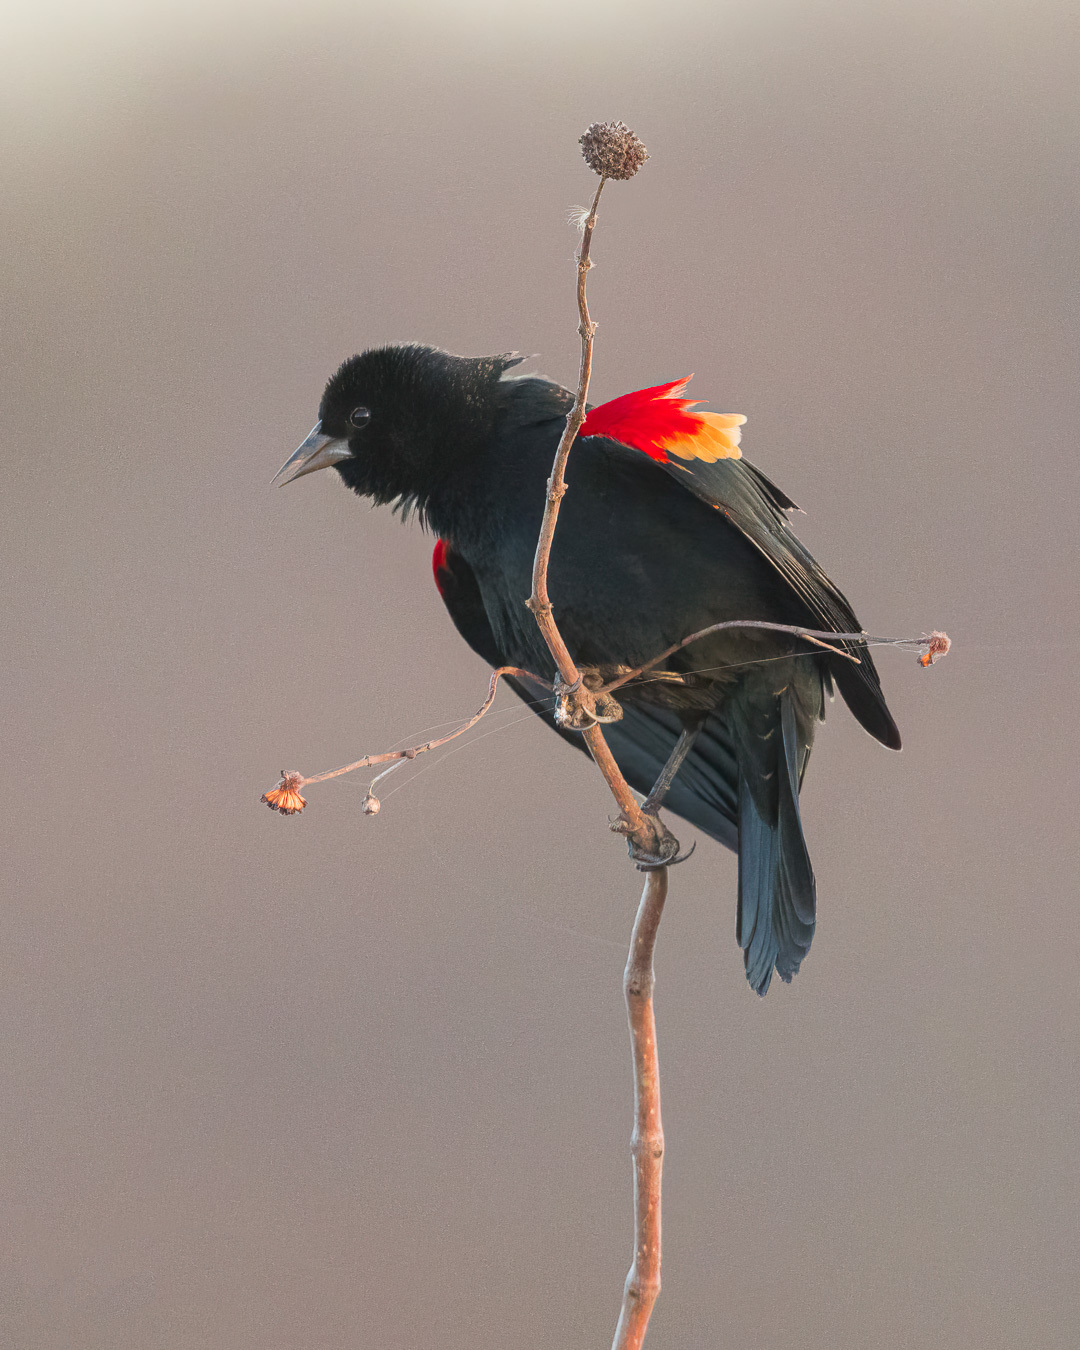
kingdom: Animalia
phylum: Chordata
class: Aves
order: Passeriformes
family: Icteridae
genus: Agelaius
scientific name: Agelaius phoeniceus
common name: Red-winged blackbird
